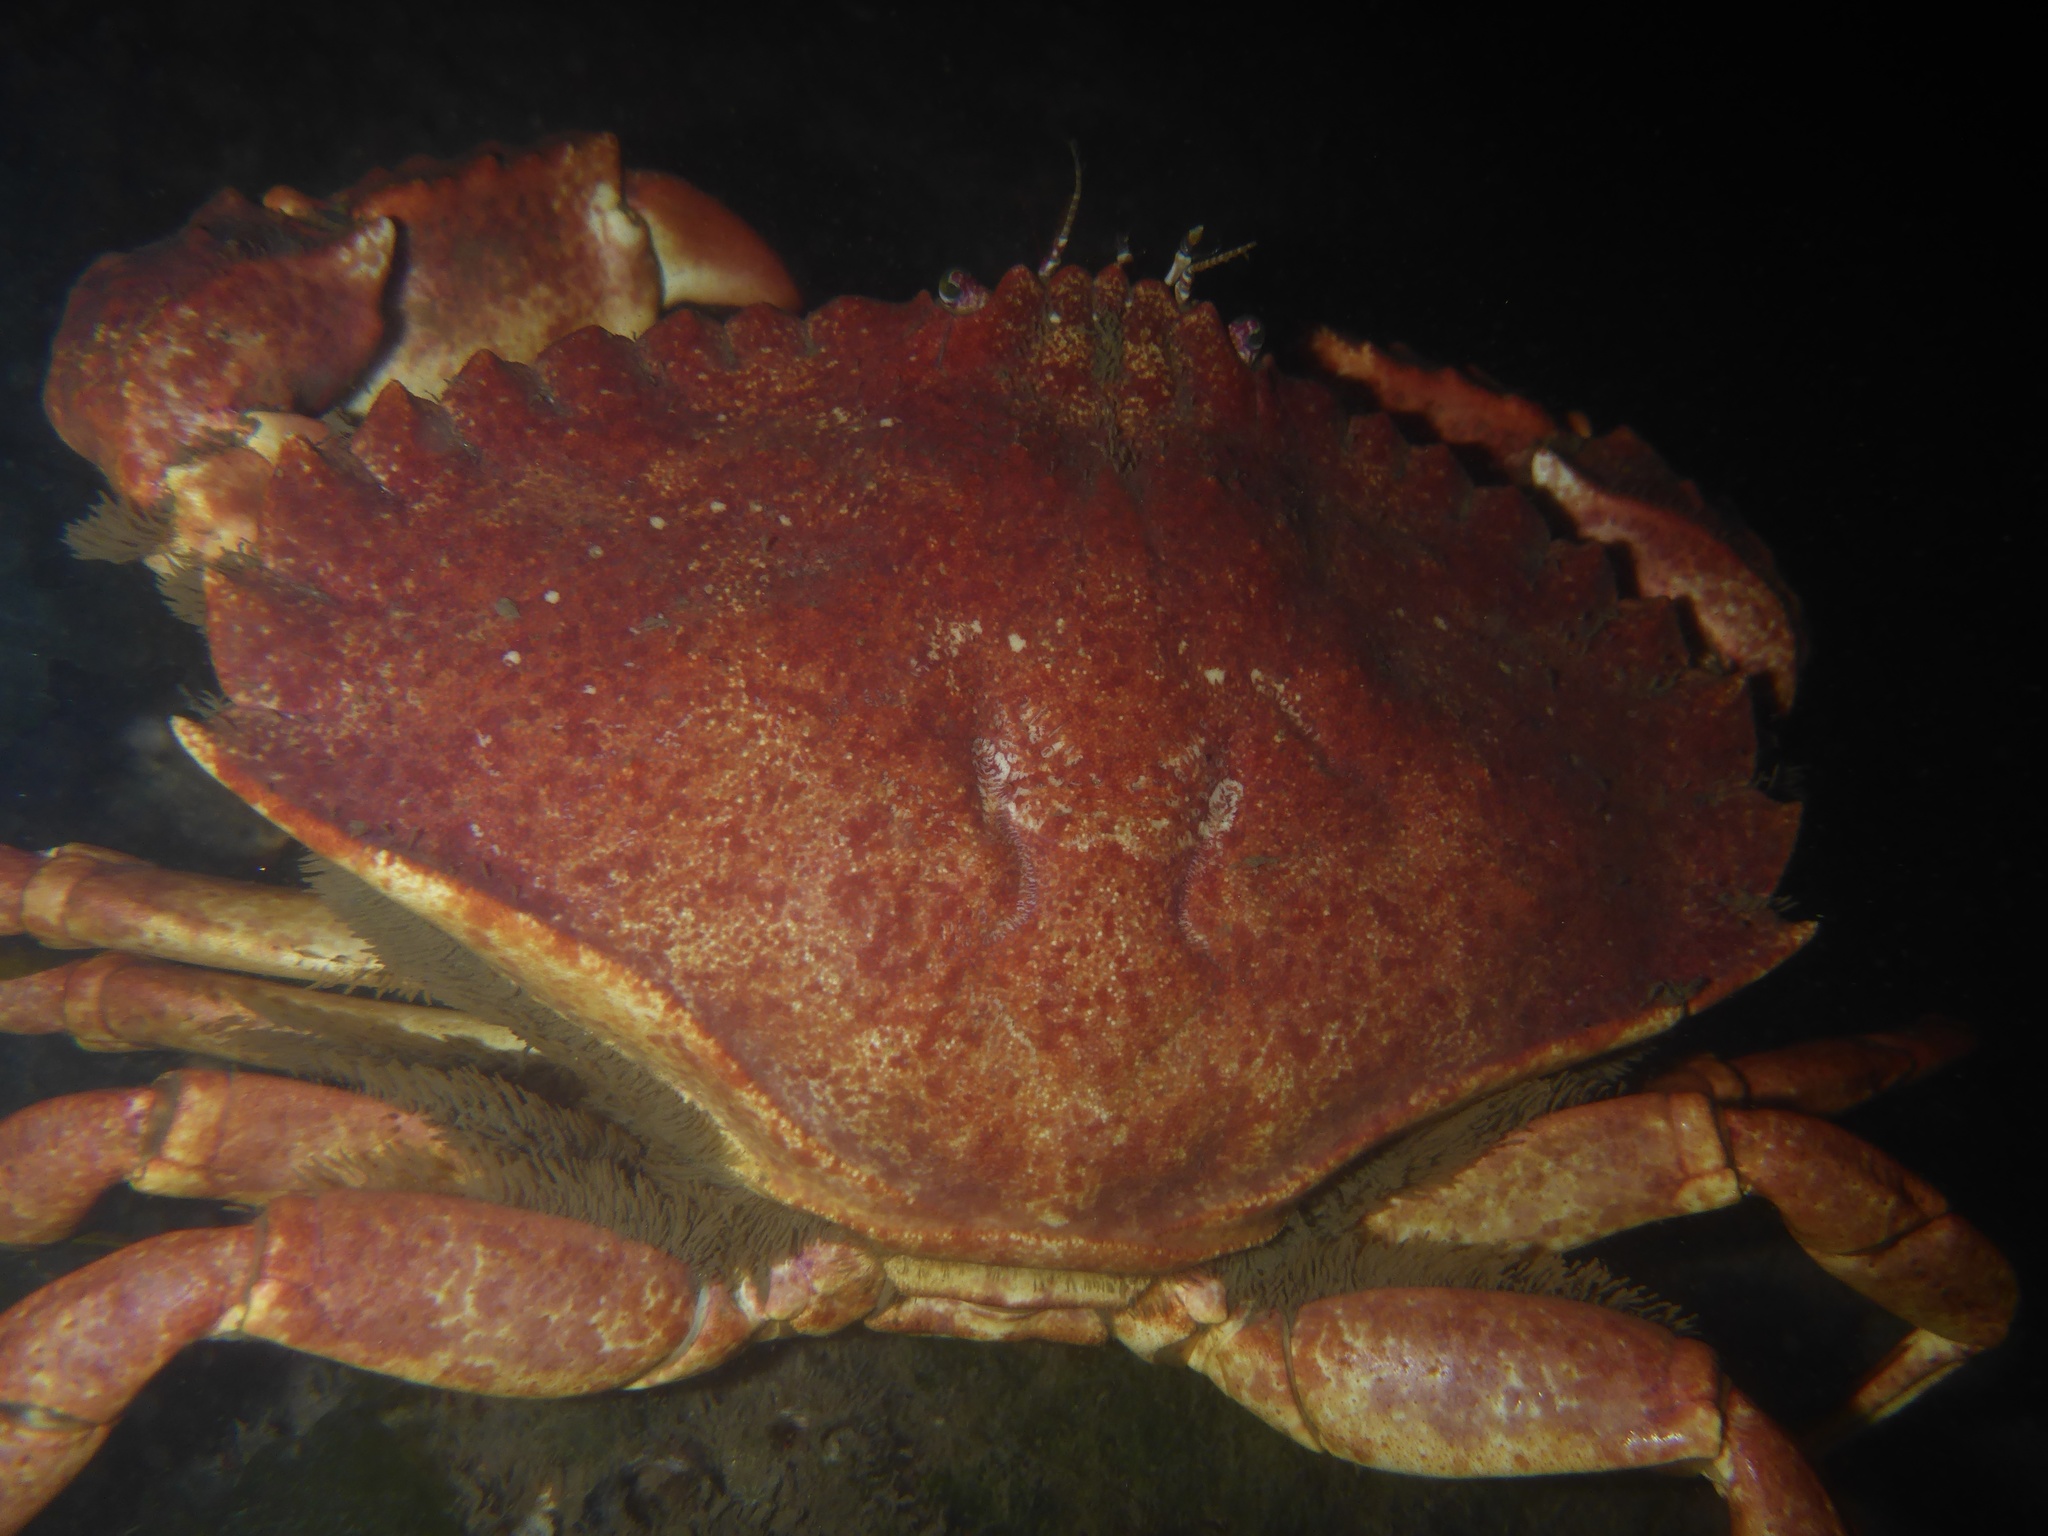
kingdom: Animalia
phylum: Arthropoda
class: Malacostraca
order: Decapoda
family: Cancridae
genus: Cancer
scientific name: Cancer productus
